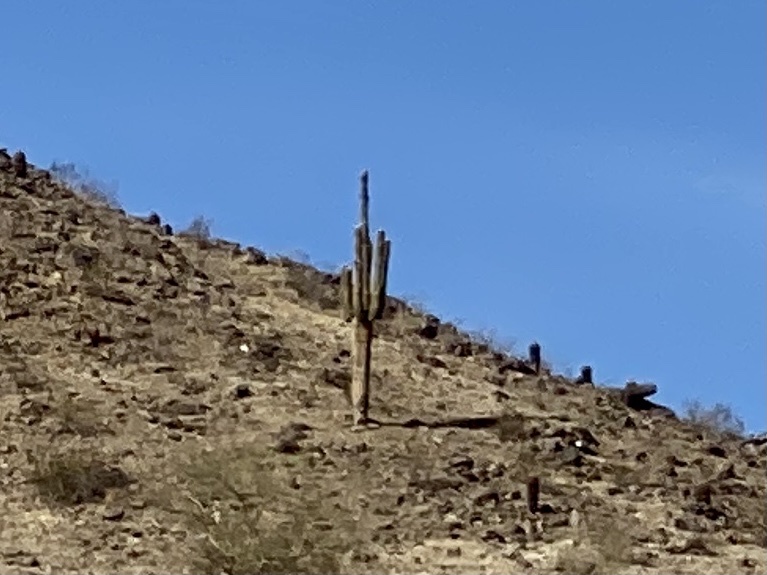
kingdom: Plantae
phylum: Tracheophyta
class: Magnoliopsida
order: Caryophyllales
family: Cactaceae
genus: Carnegiea
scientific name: Carnegiea gigantea
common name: Saguaro
